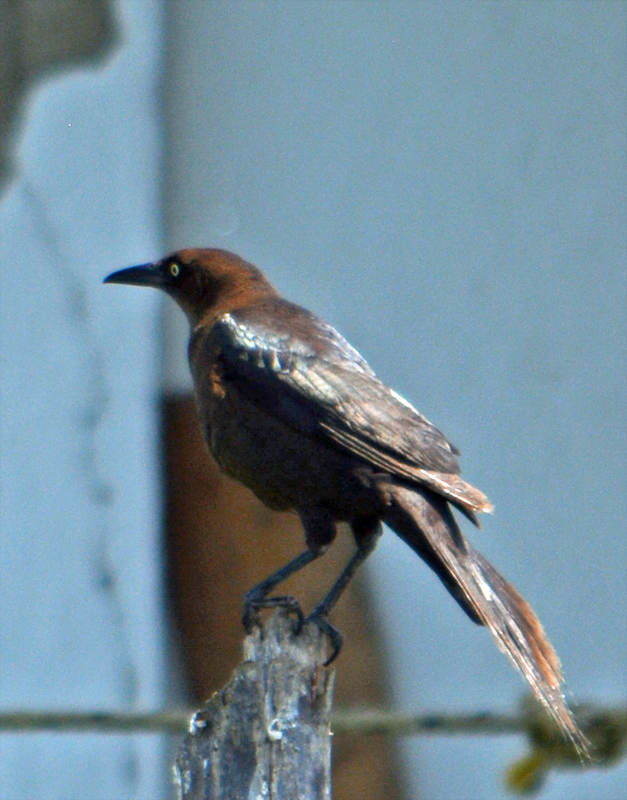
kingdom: Animalia
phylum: Chordata
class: Aves
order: Passeriformes
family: Icteridae
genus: Quiscalus
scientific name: Quiscalus mexicanus
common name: Great-tailed grackle
